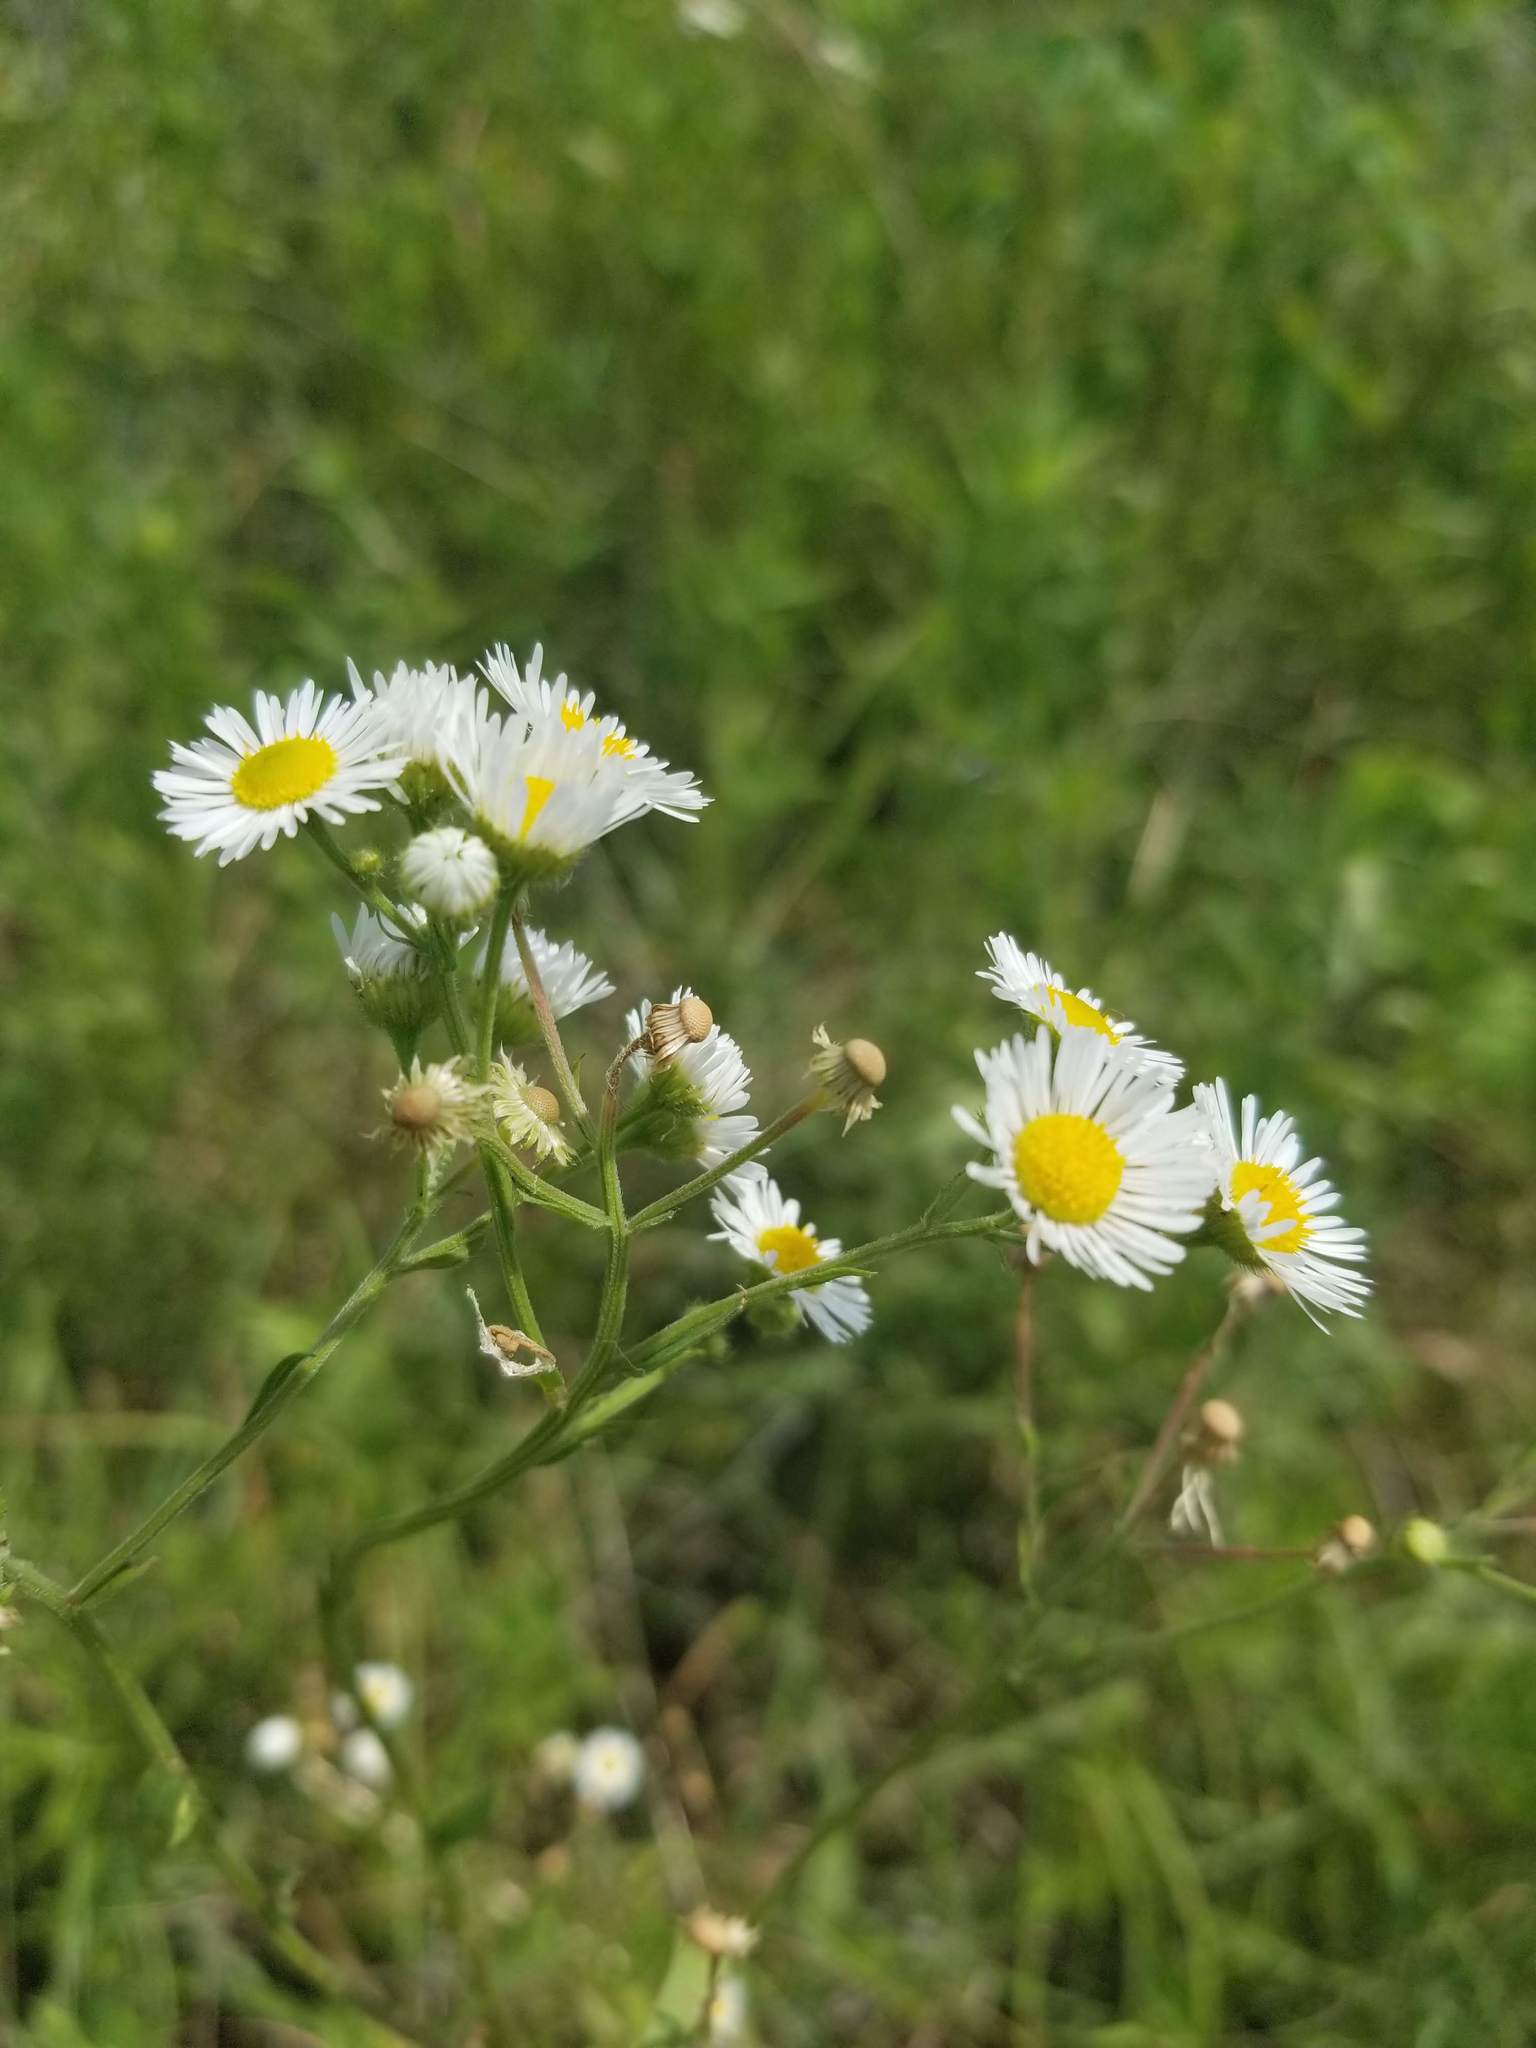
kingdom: Plantae
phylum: Tracheophyta
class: Magnoliopsida
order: Asterales
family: Asteraceae
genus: Erigeron
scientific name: Erigeron strigosus
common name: Common eastern fleabane
